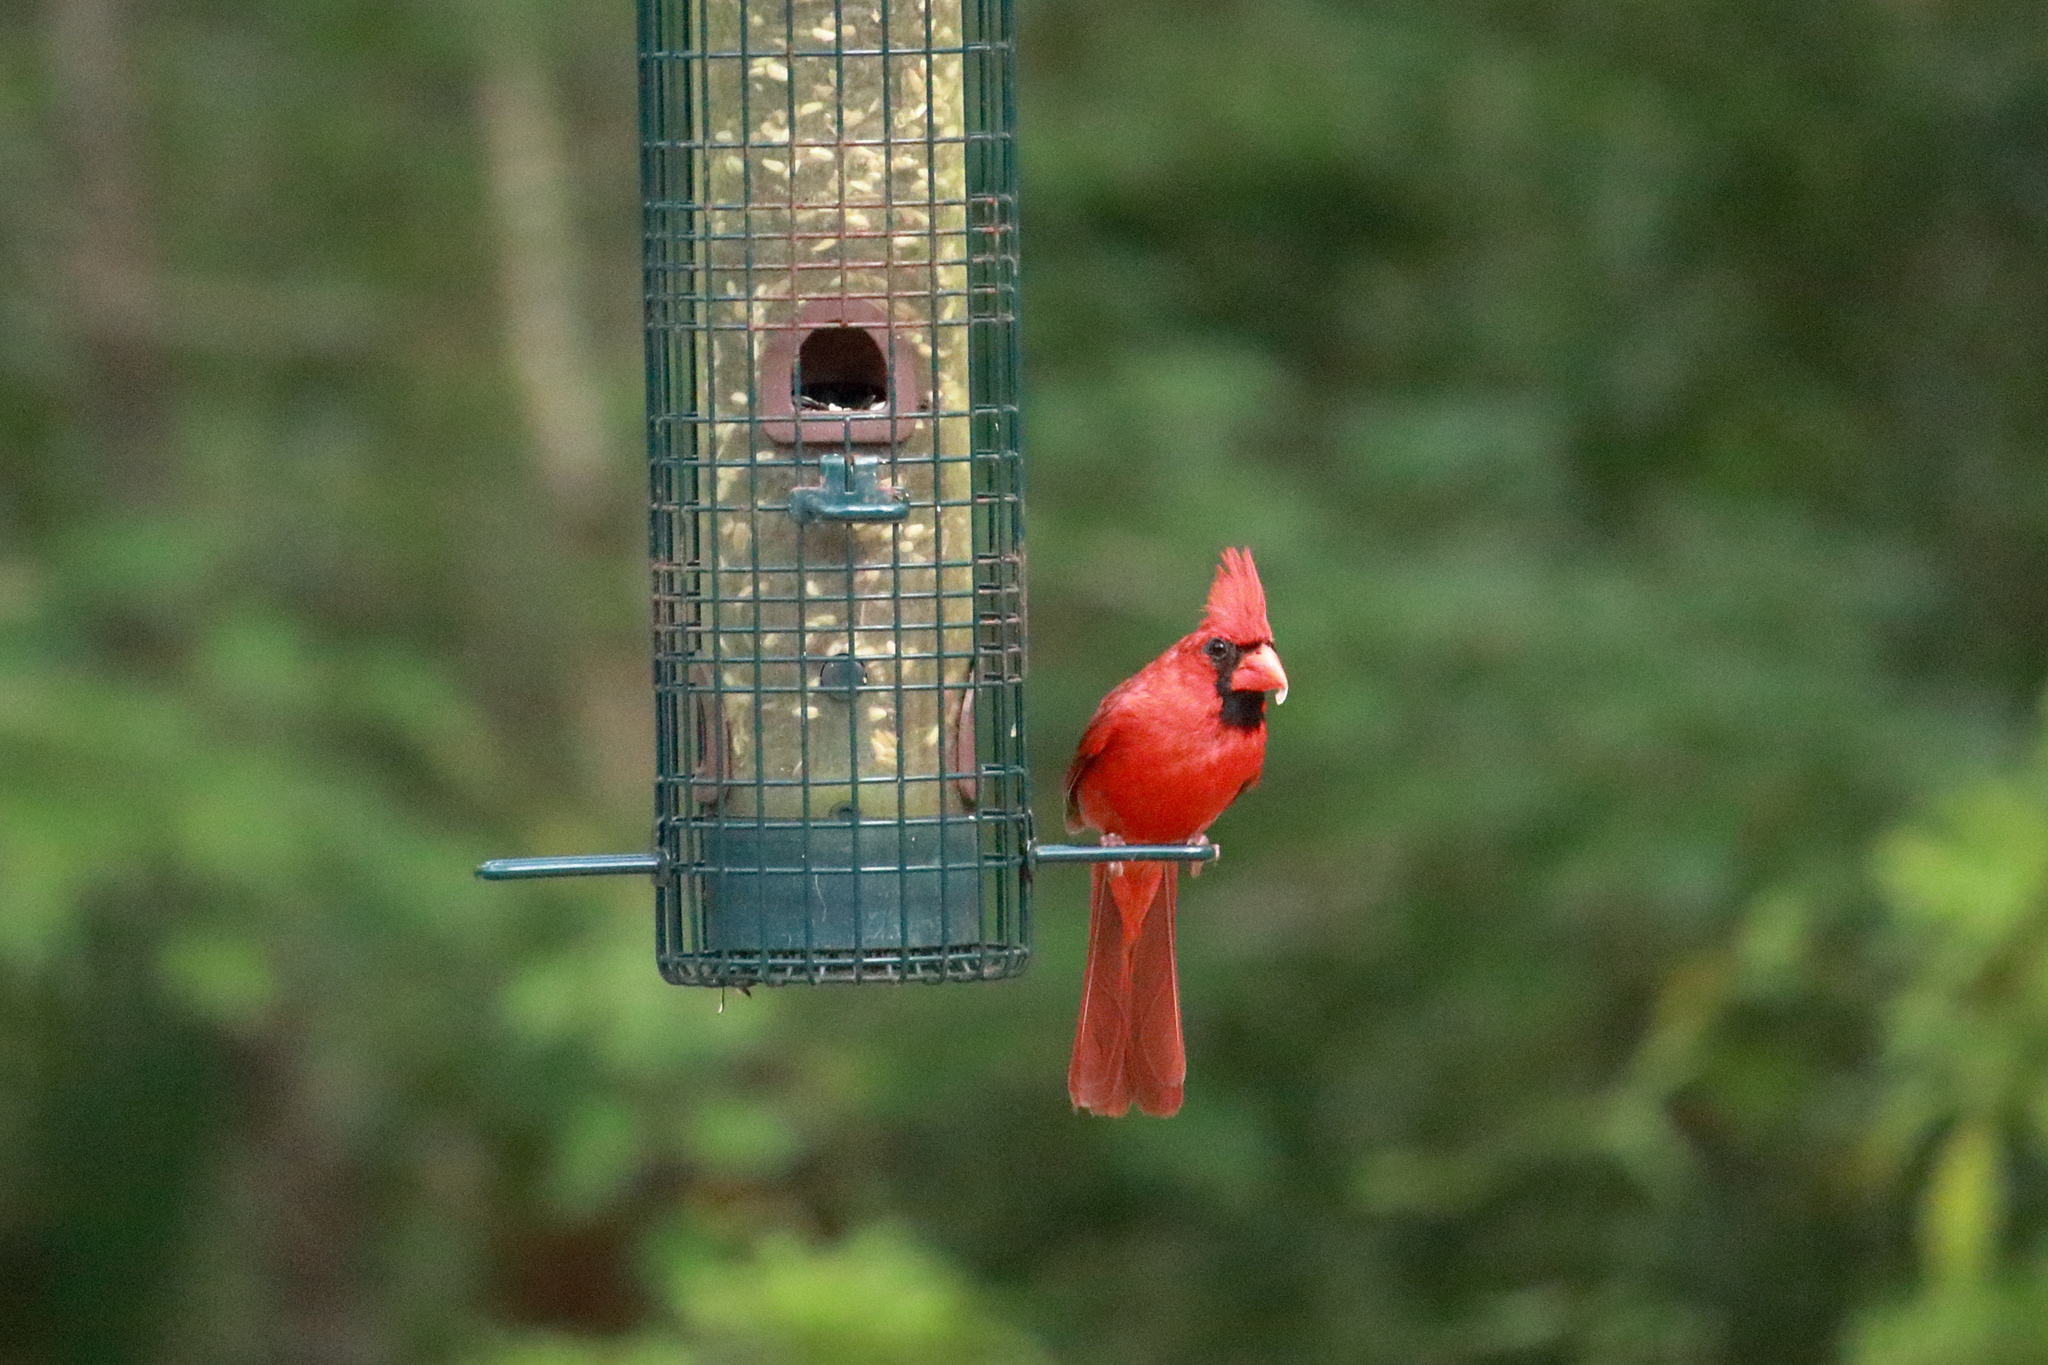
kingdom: Animalia
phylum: Chordata
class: Aves
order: Passeriformes
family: Cardinalidae
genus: Cardinalis
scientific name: Cardinalis cardinalis
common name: Northern cardinal
